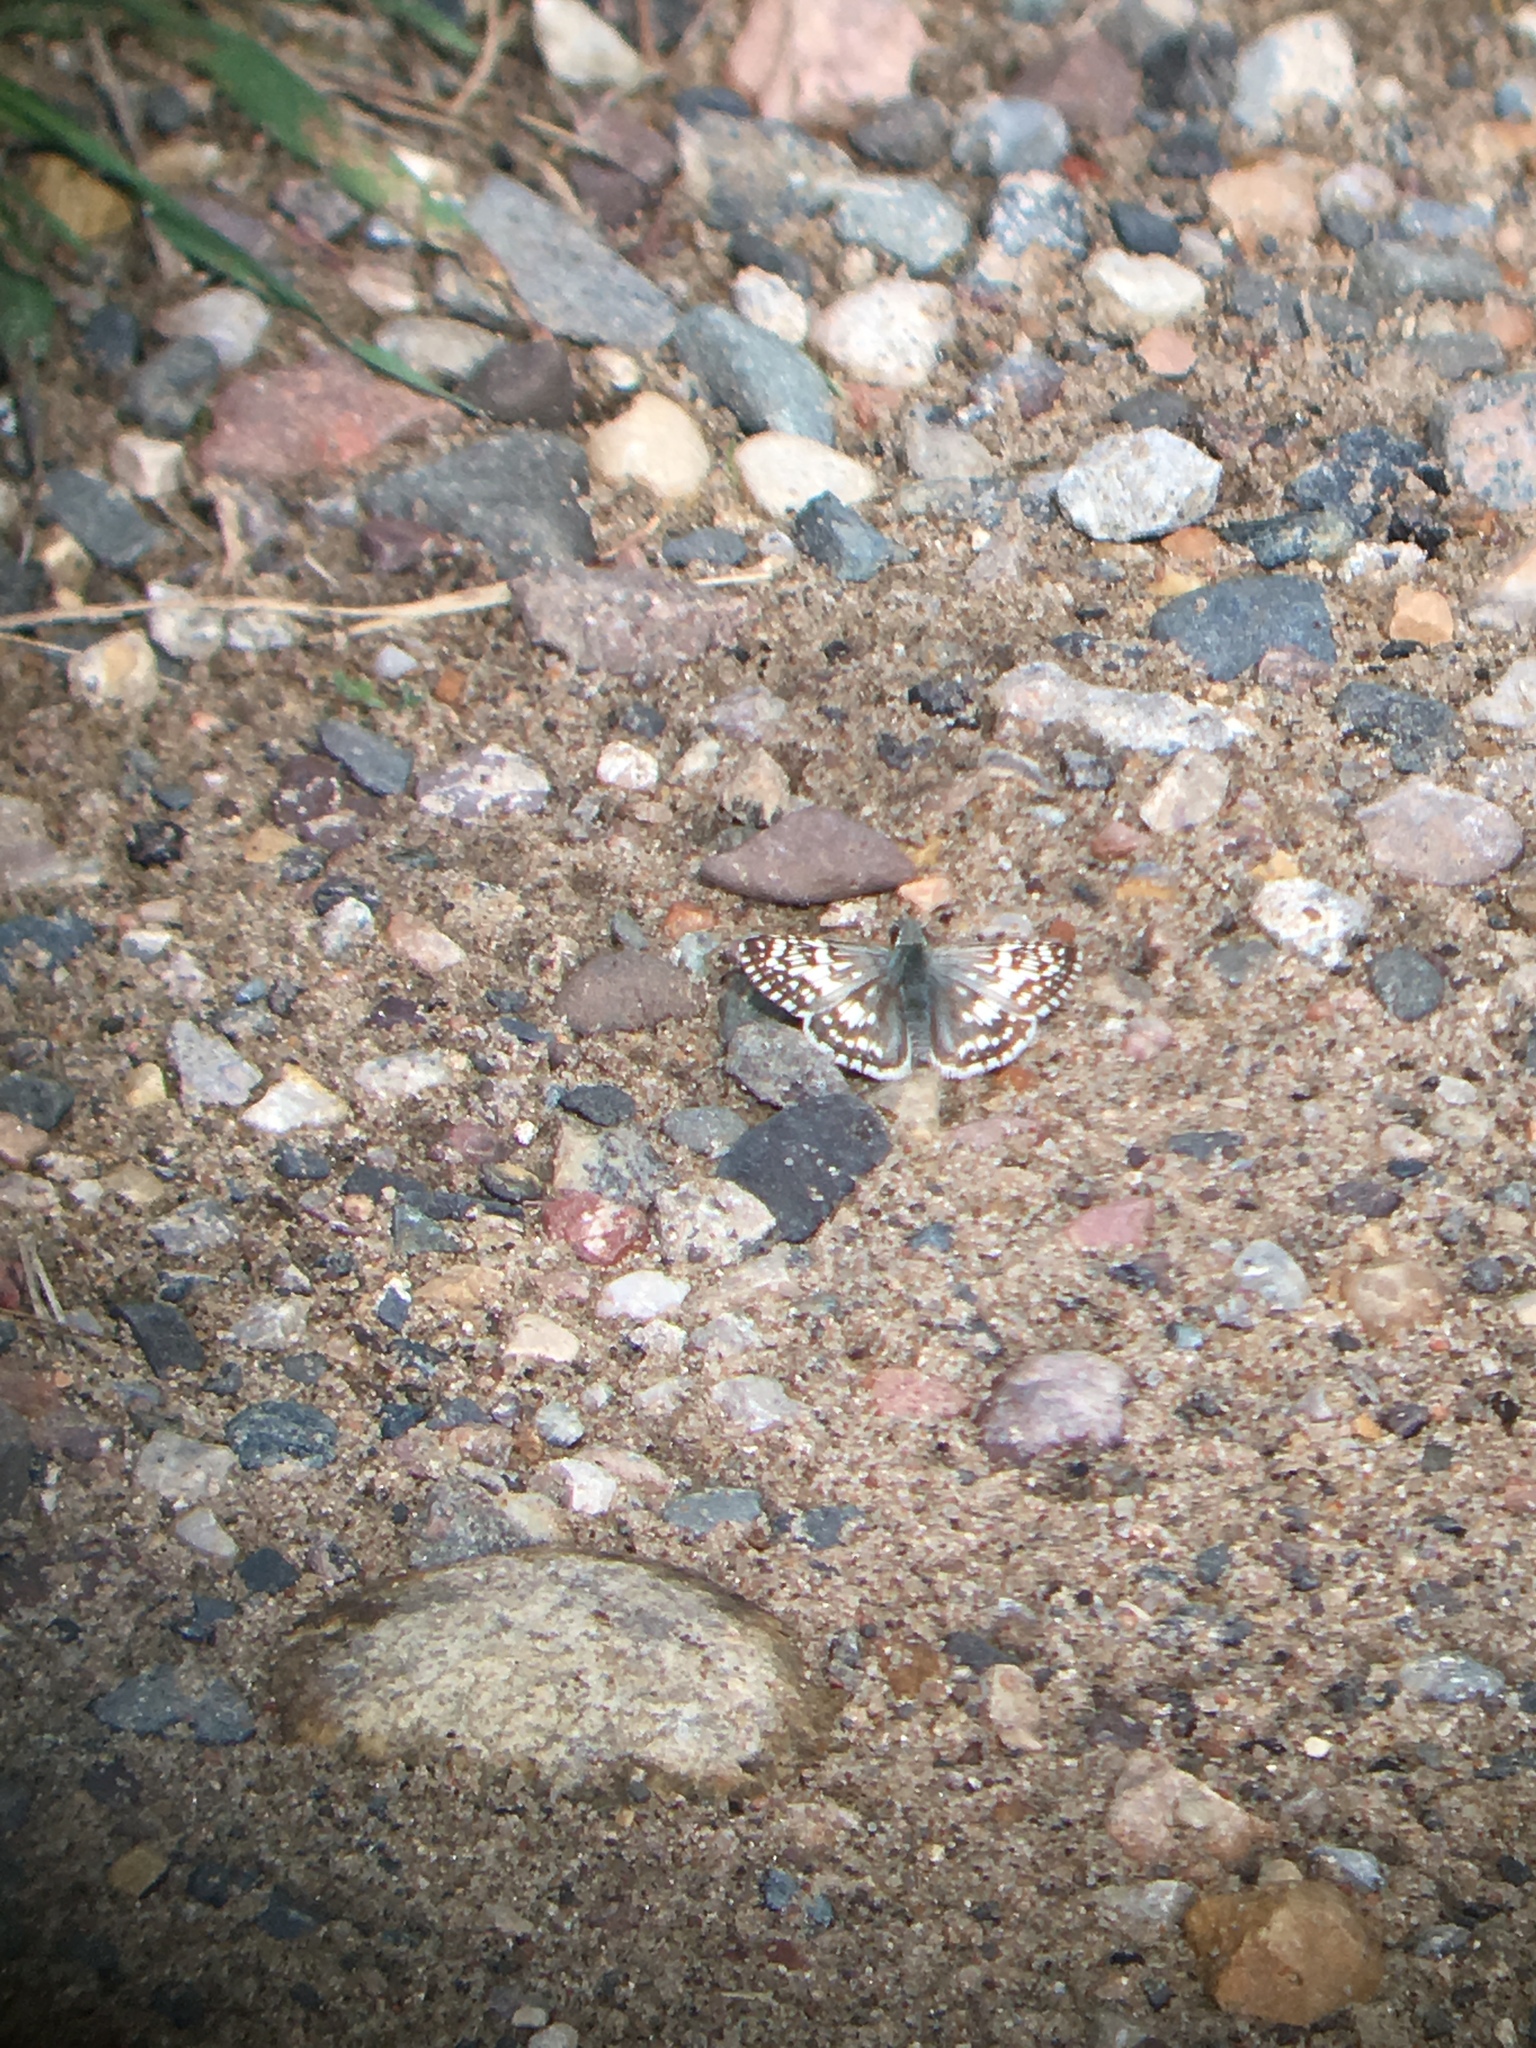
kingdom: Animalia
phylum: Arthropoda
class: Insecta
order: Lepidoptera
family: Hesperiidae
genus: Burnsius
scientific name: Burnsius communis
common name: Common checkered-skipper
